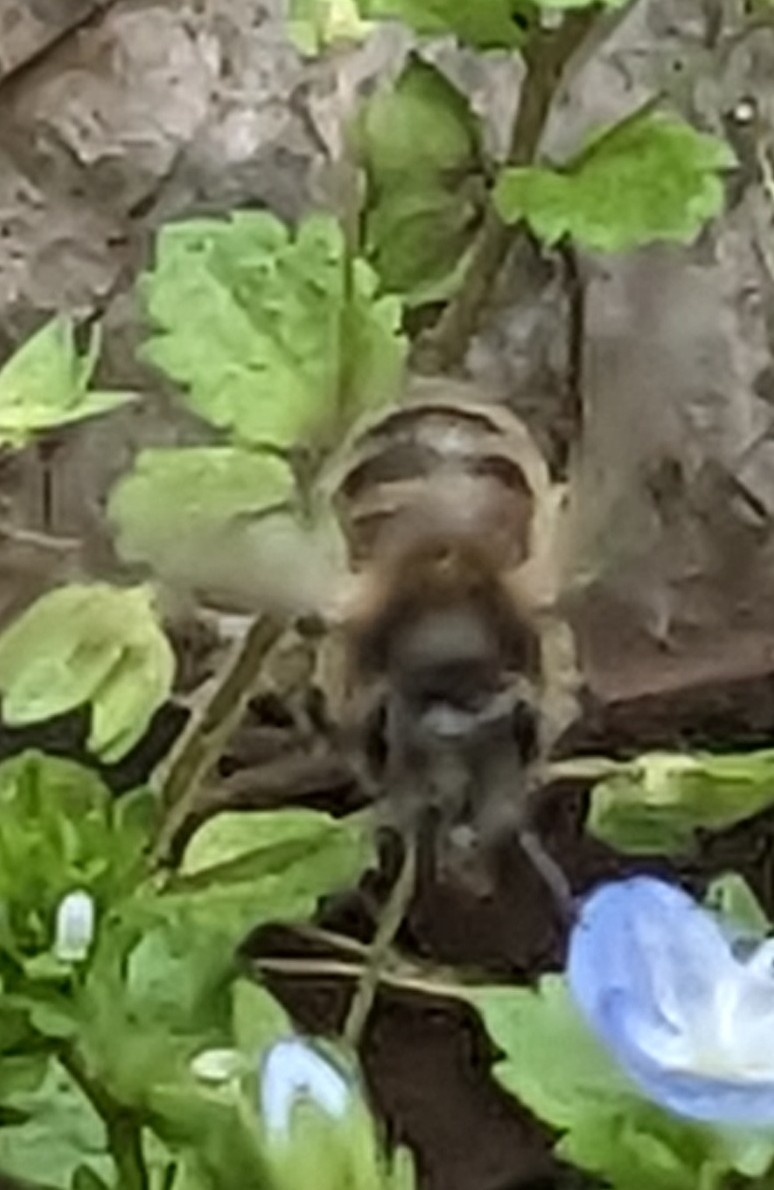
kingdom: Animalia
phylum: Arthropoda
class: Insecta
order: Hymenoptera
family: Apidae
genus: Apis
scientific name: Apis mellifera
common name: Honey bee
